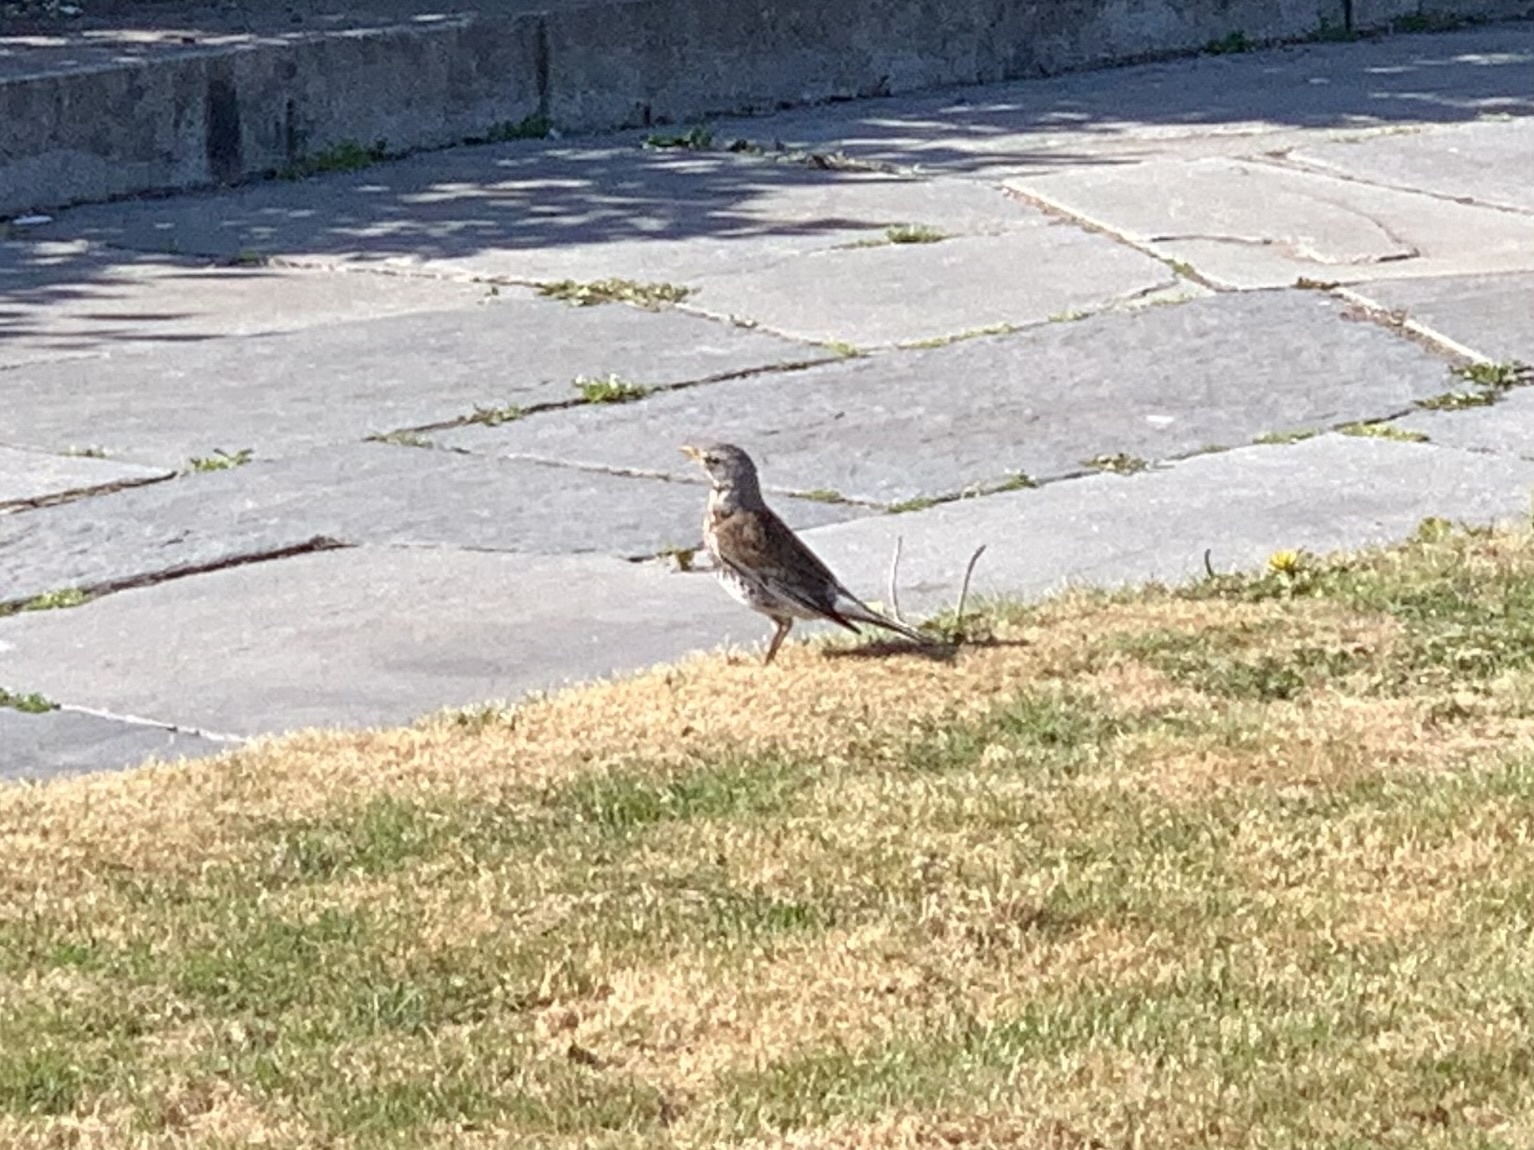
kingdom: Animalia
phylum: Chordata
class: Aves
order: Passeriformes
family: Turdidae
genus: Turdus
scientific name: Turdus pilaris
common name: Fieldfare
